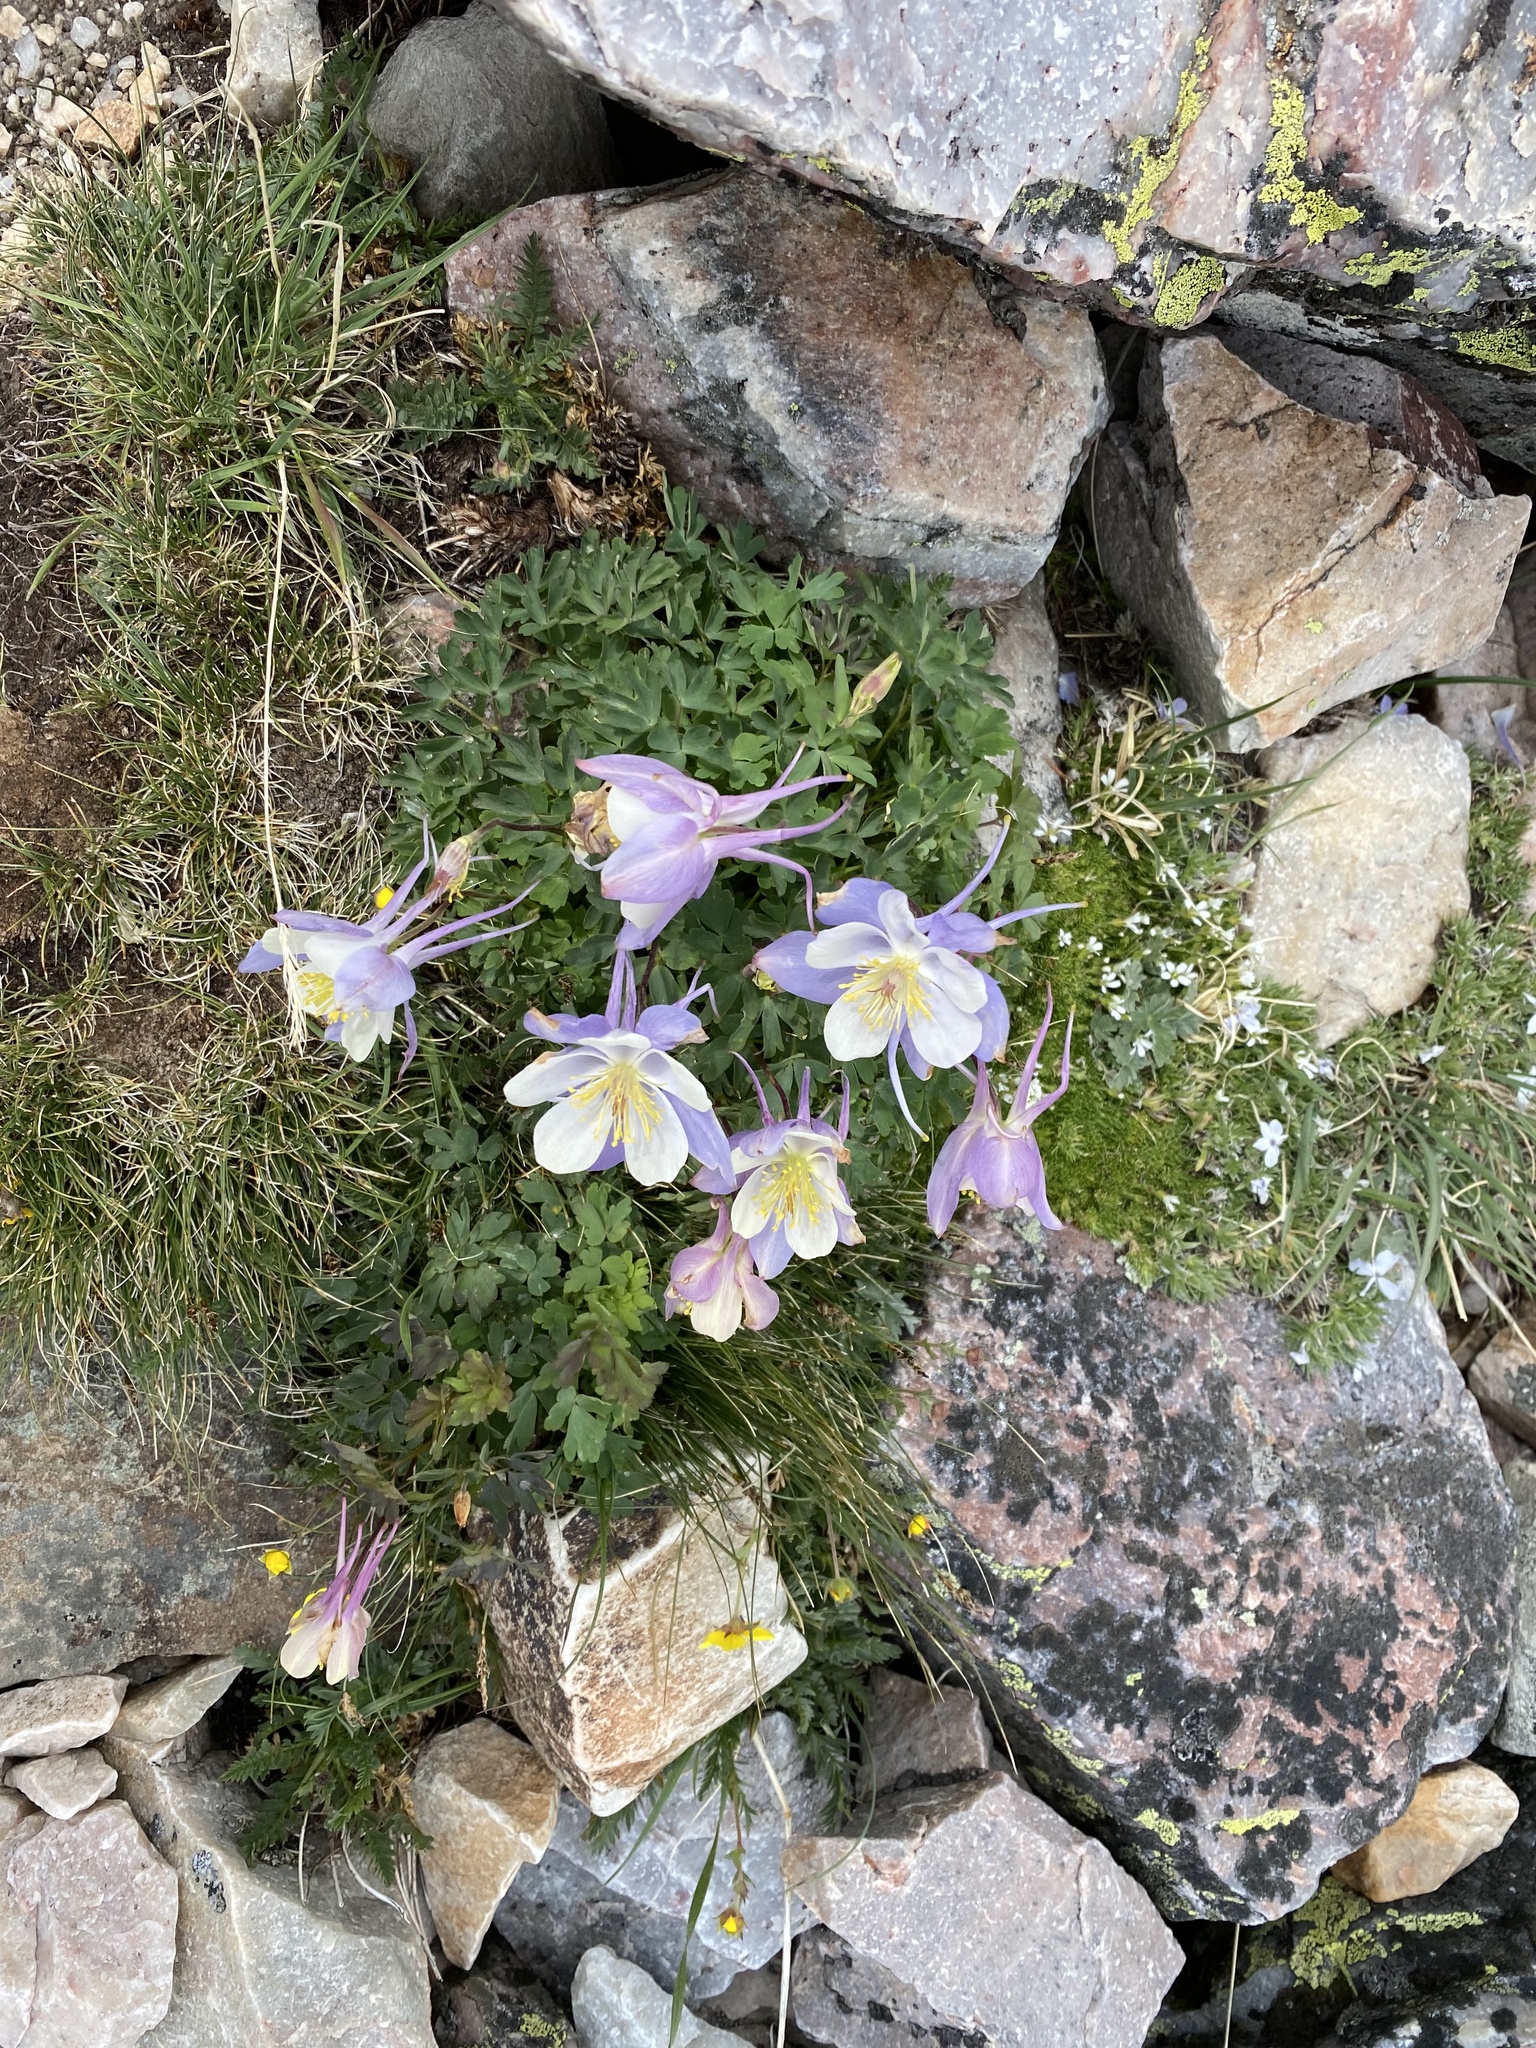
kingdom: Plantae
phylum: Tracheophyta
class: Magnoliopsida
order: Ranunculales
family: Ranunculaceae
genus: Aquilegia
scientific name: Aquilegia coerulea
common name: Rocky mountain columbine
